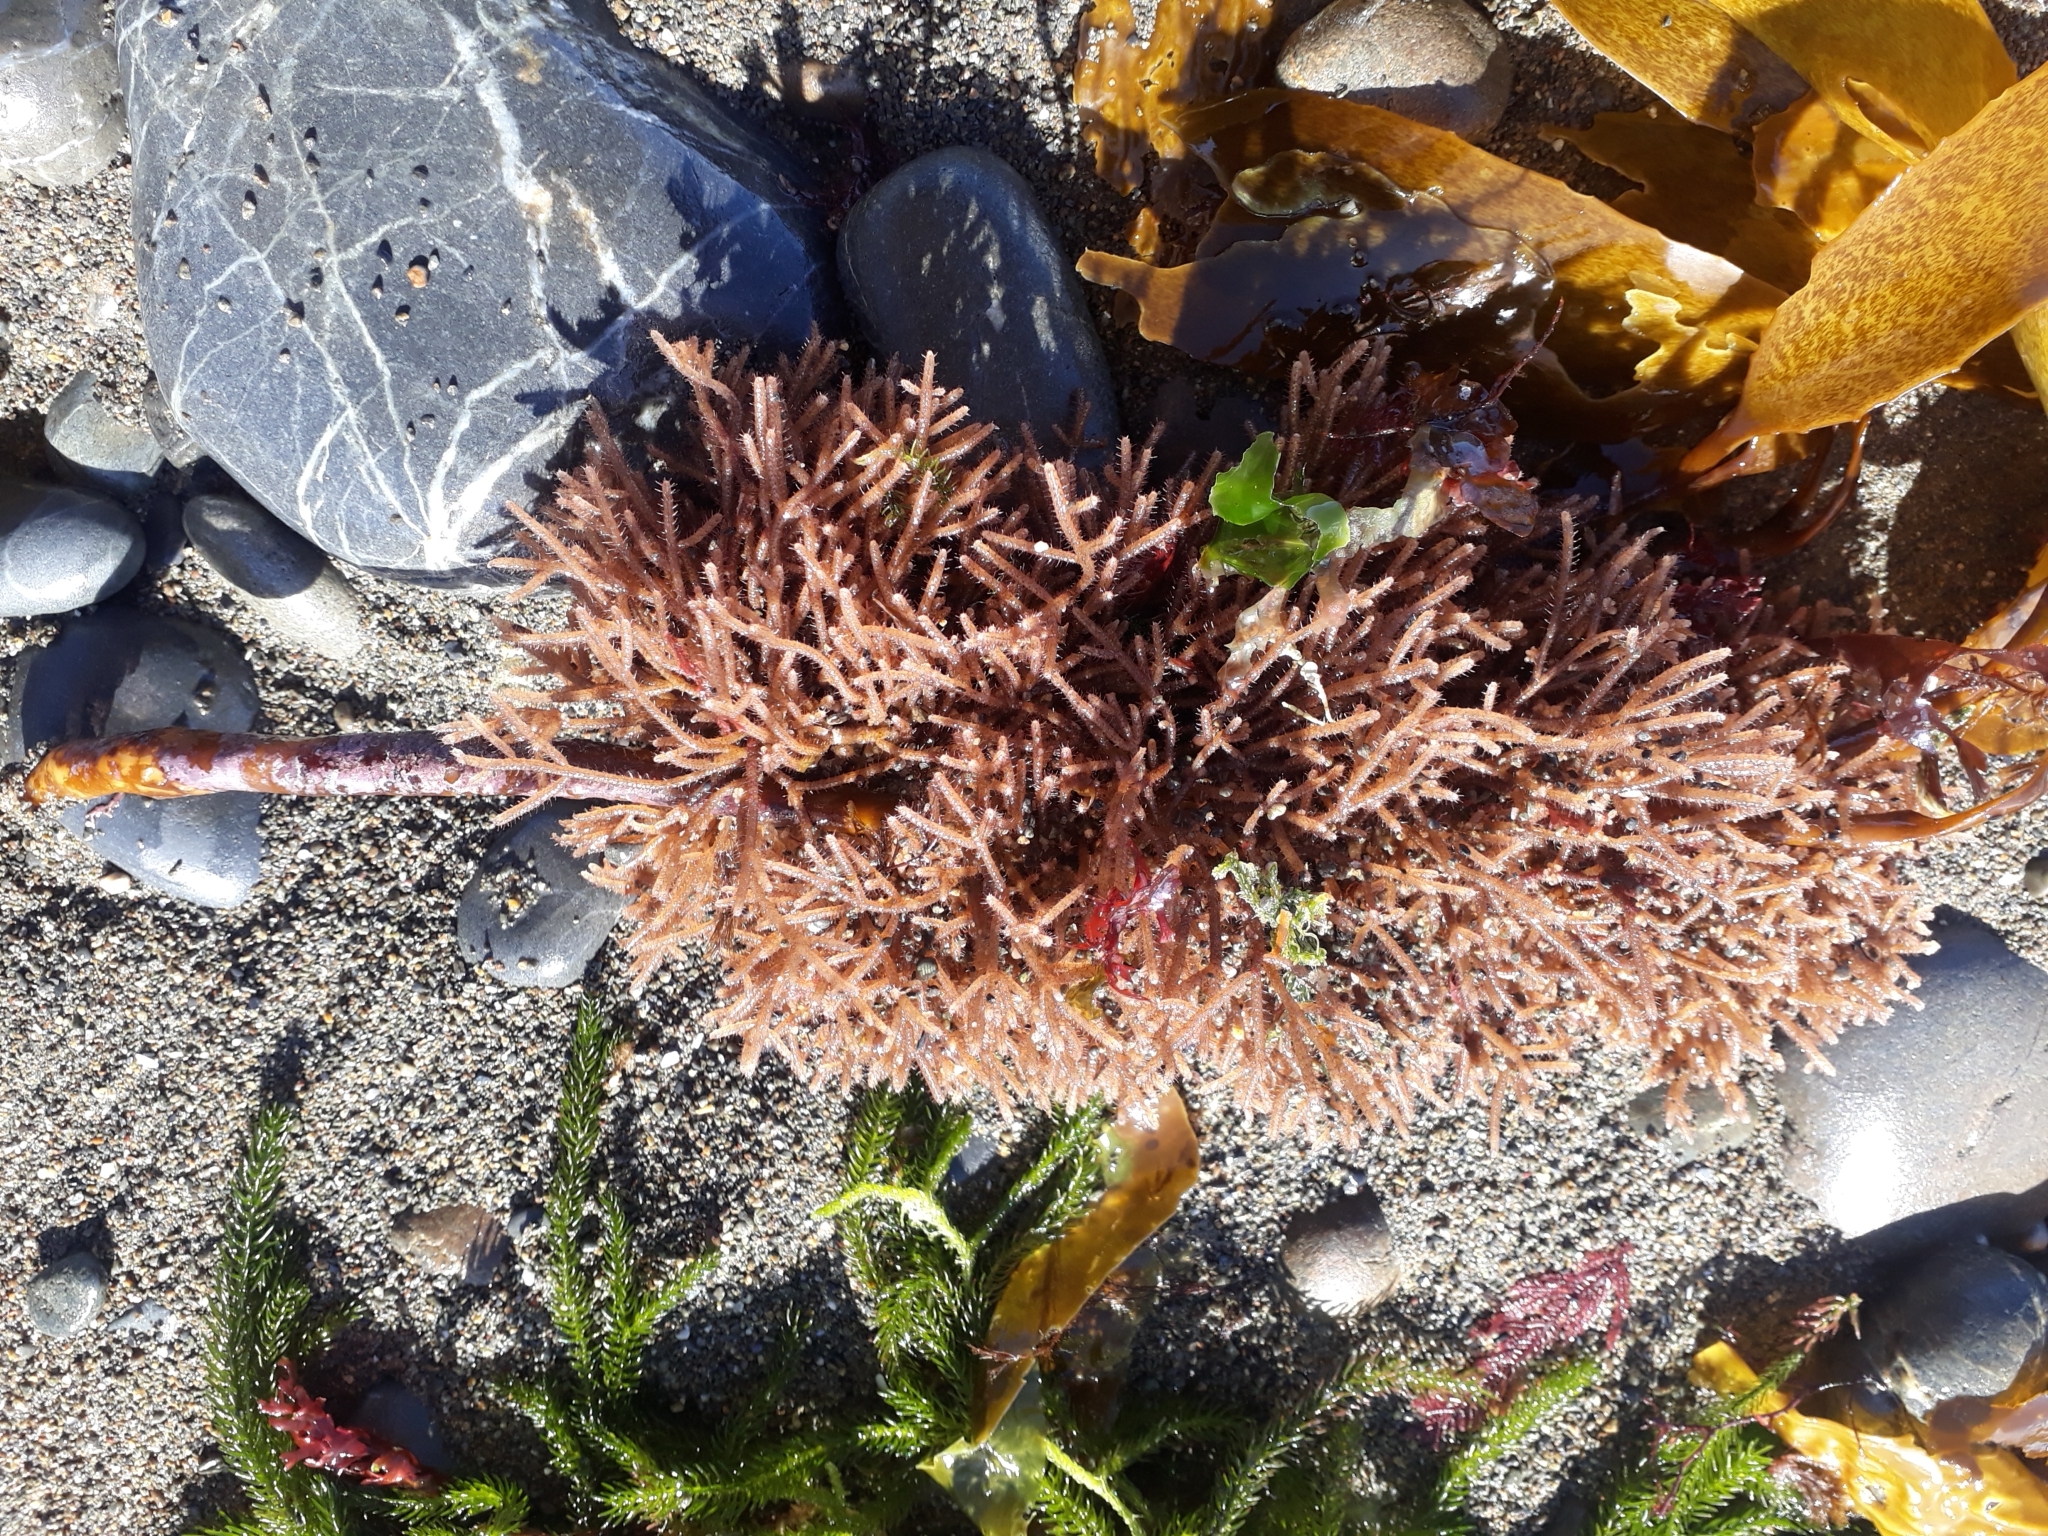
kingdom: Animalia
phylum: Bryozoa
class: Gymnolaemata
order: Ctenostomatida
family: Flustrellidridae
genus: Elzerina
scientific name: Elzerina binderi
